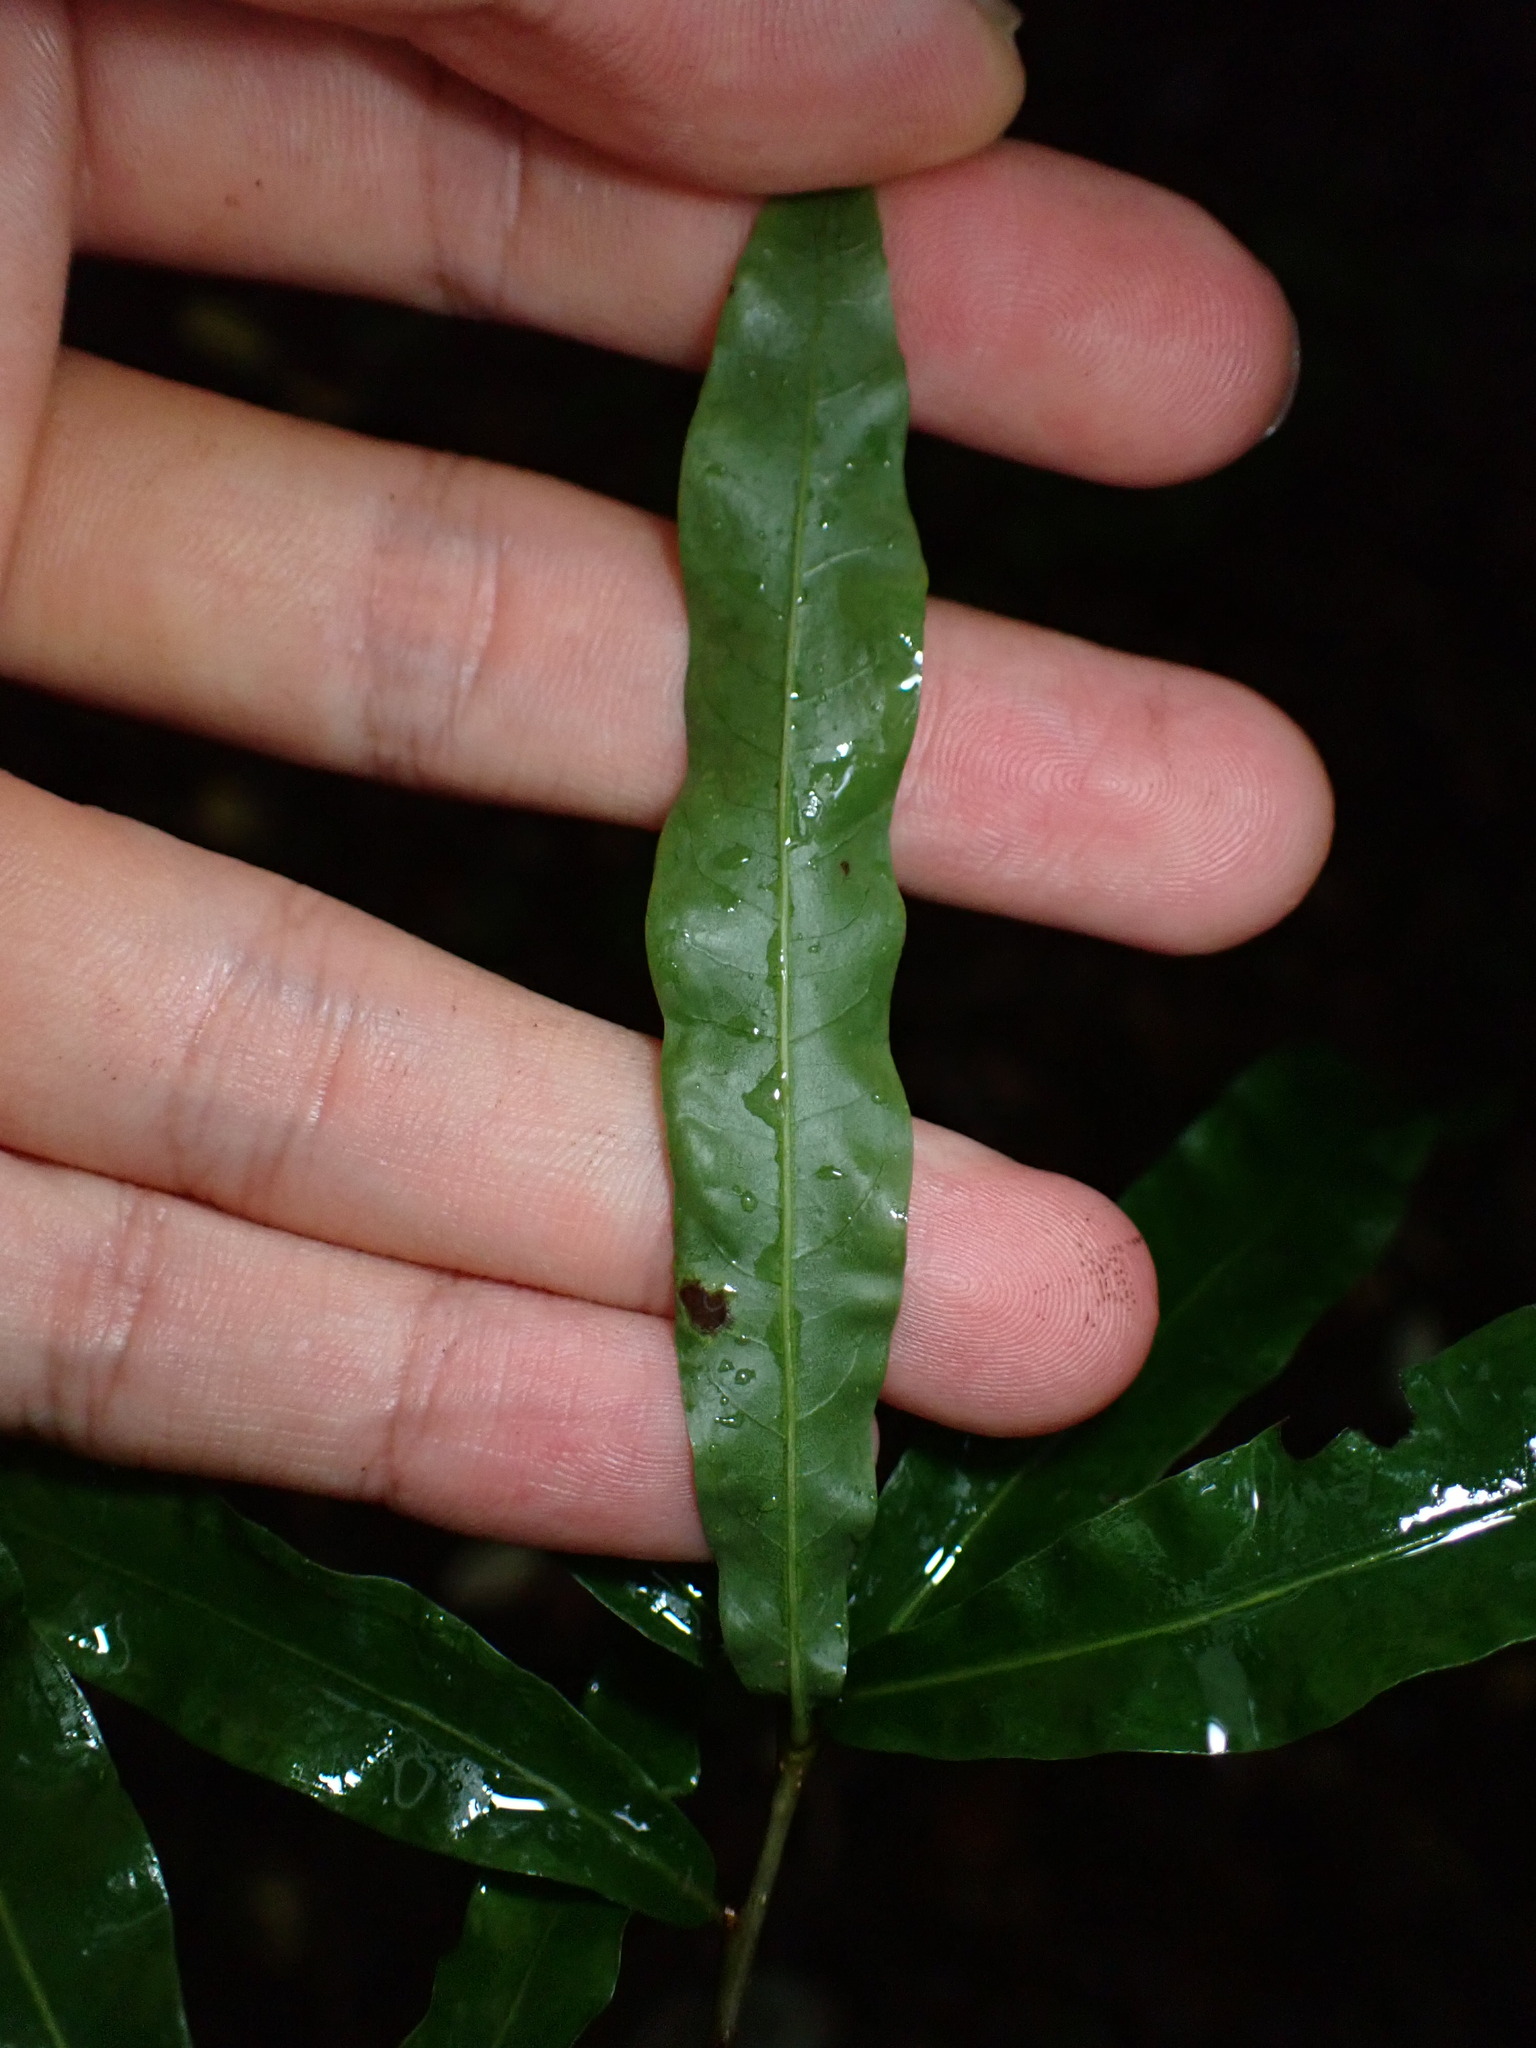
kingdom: Plantae
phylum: Tracheophyta
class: Magnoliopsida
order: Fagales
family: Fagaceae
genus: Quercus
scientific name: Quercus phellos
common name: Willow oak
